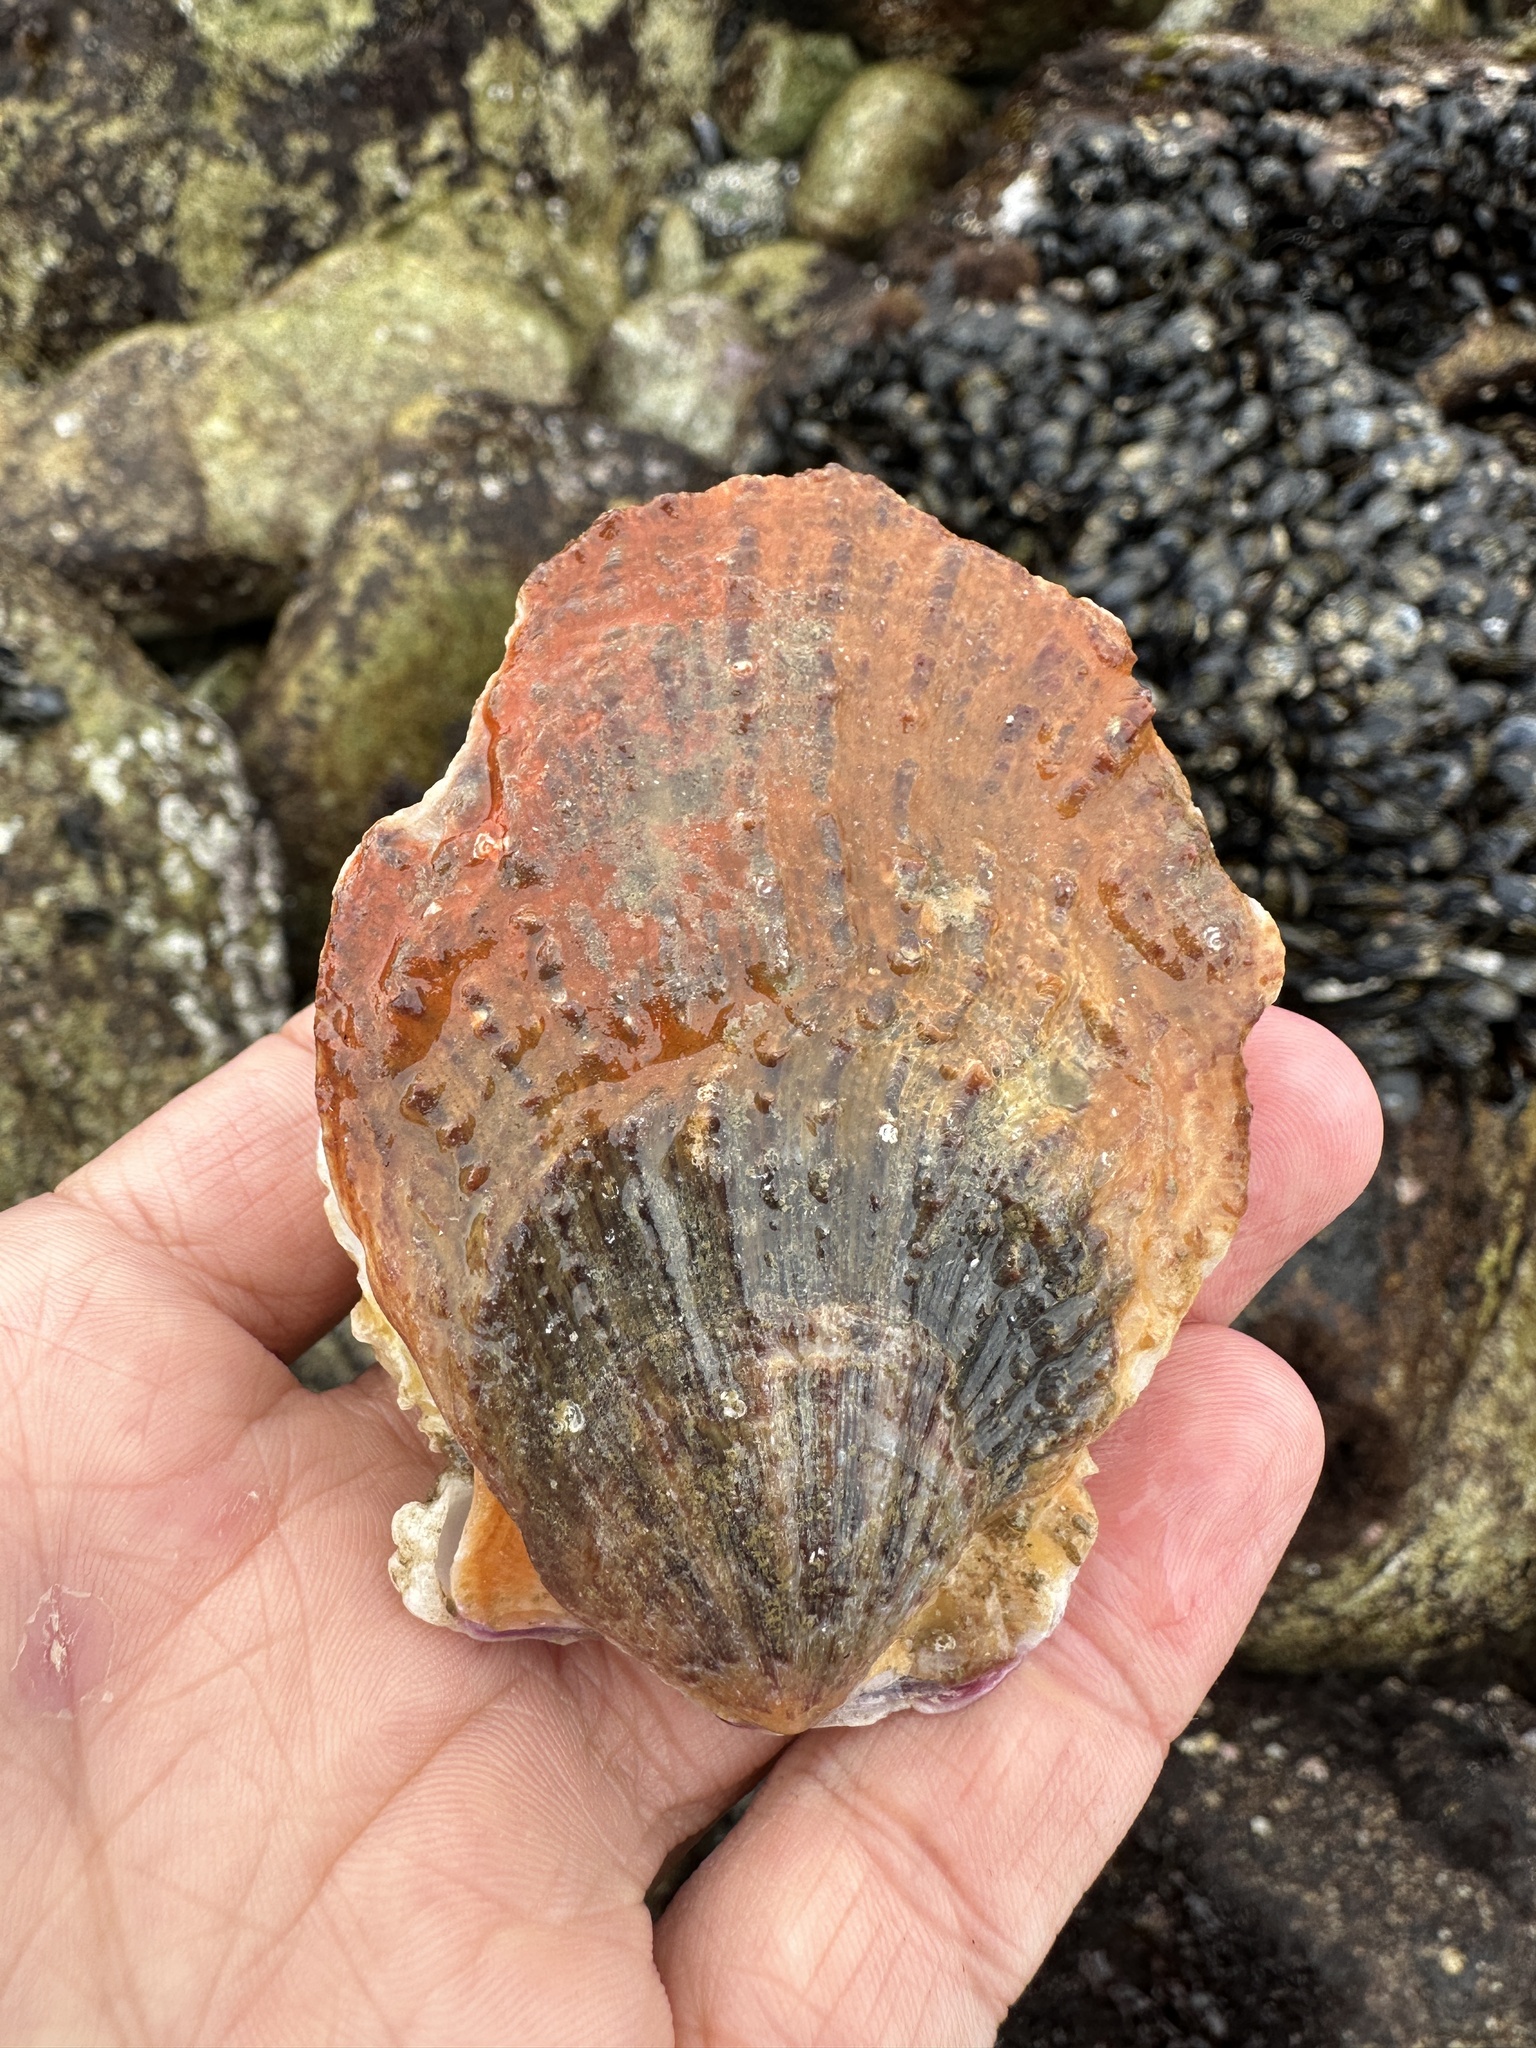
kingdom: Animalia
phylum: Mollusca
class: Bivalvia
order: Pectinida
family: Pectinidae
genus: Crassadoma
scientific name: Crassadoma gigantea
